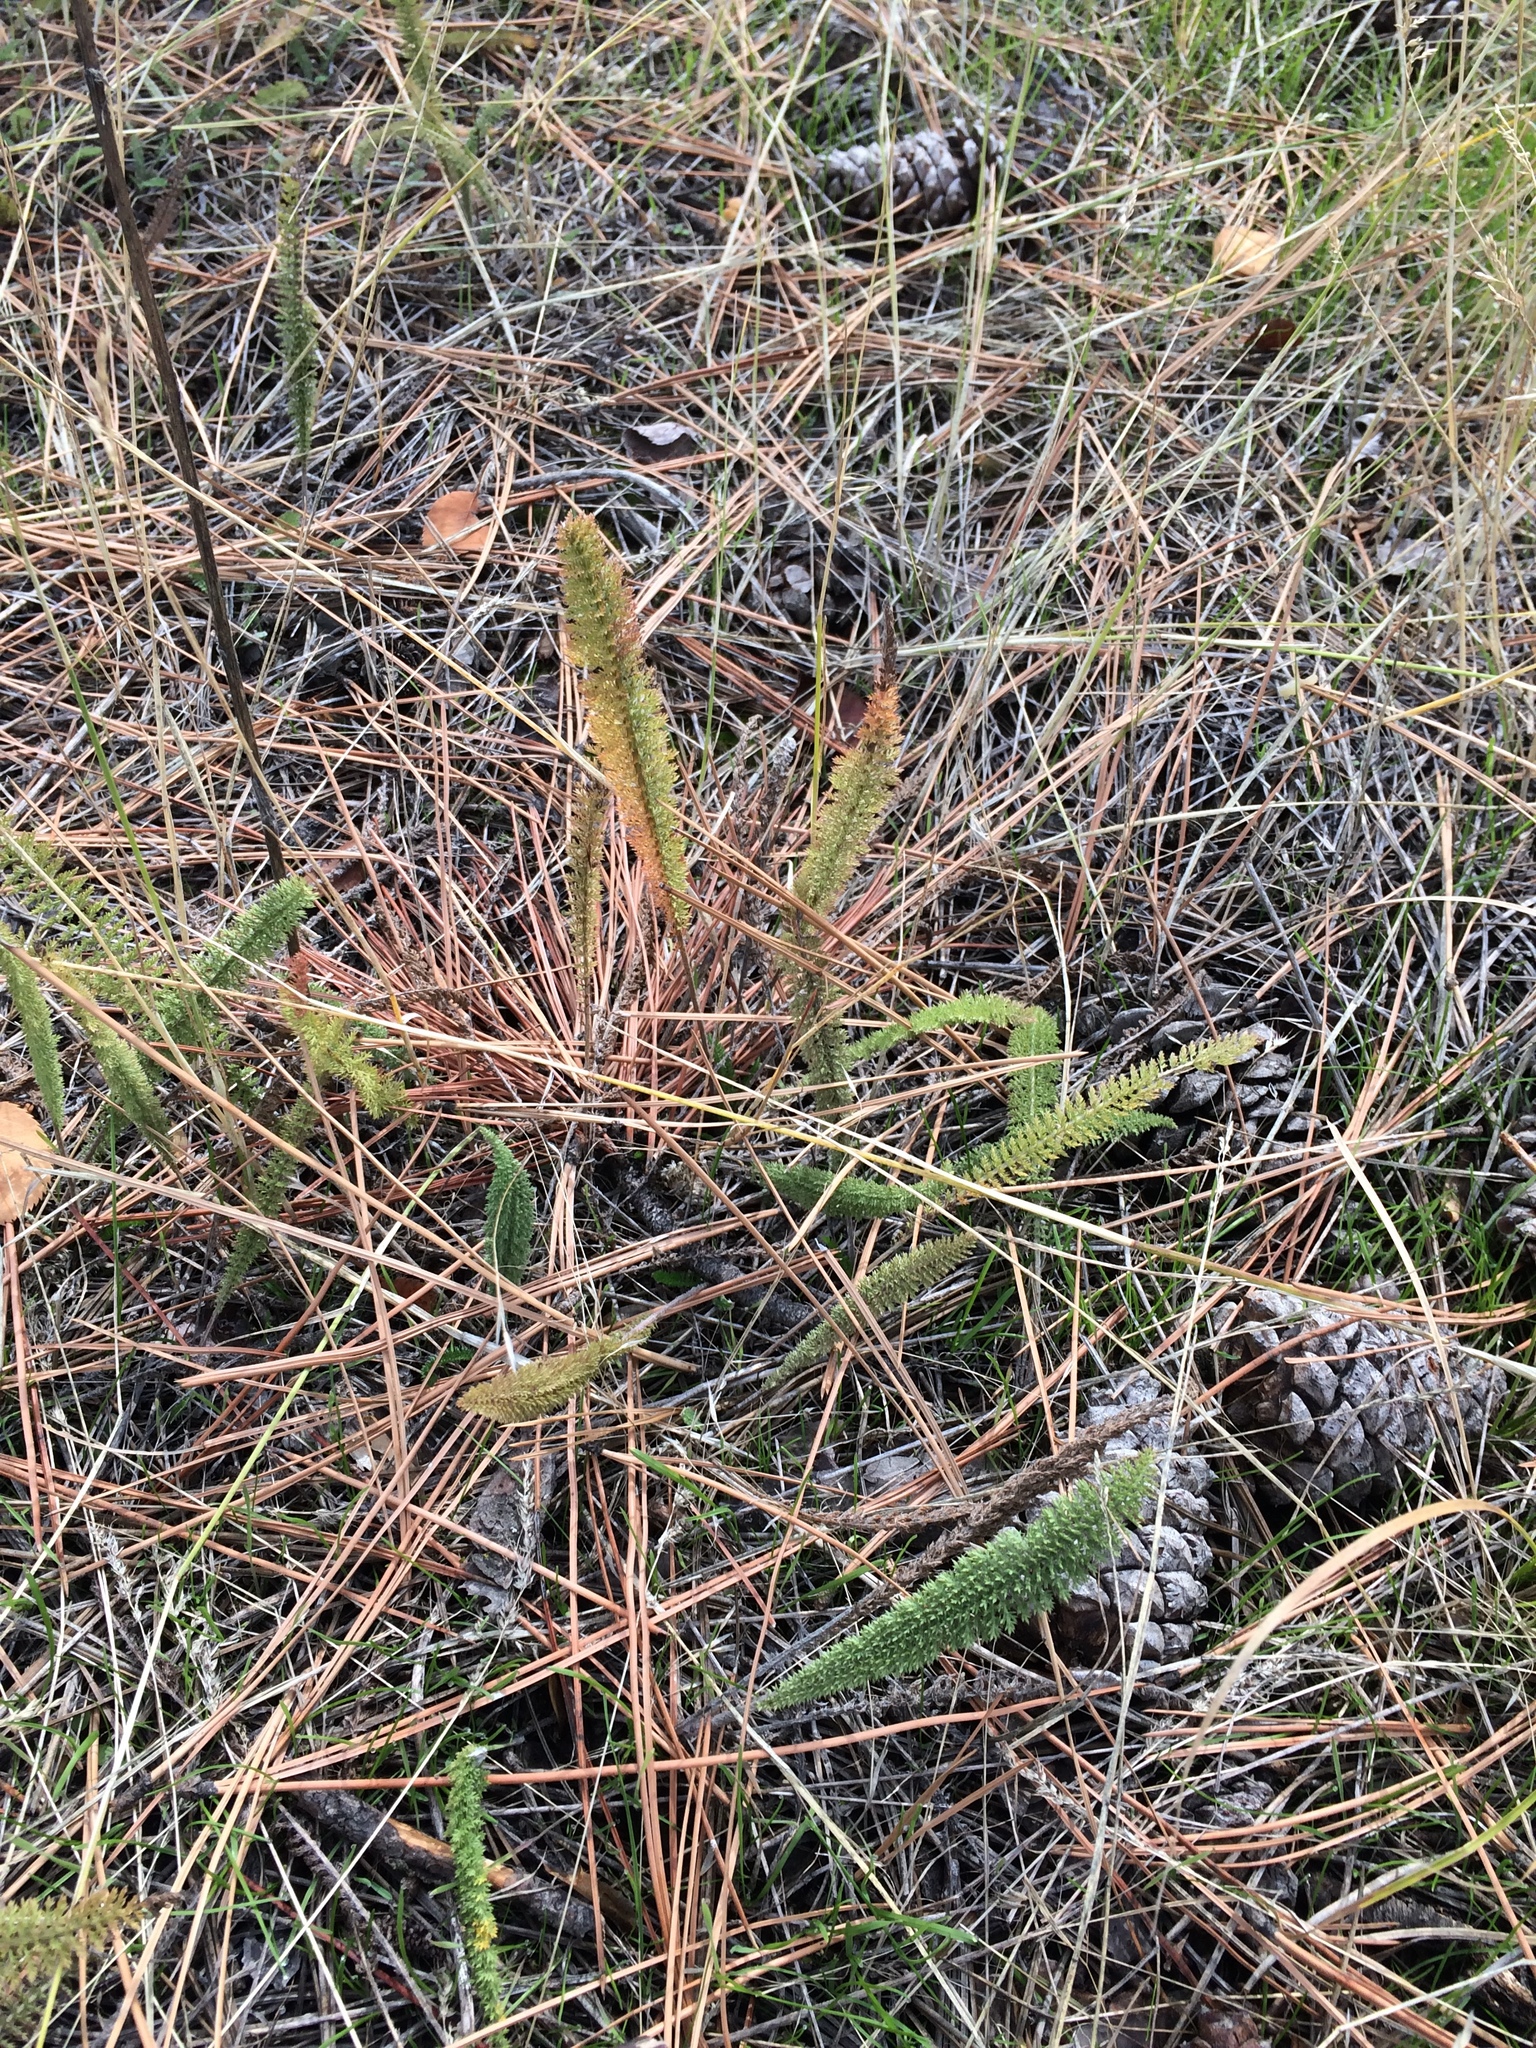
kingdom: Plantae
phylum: Tracheophyta
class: Magnoliopsida
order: Asterales
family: Asteraceae
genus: Achillea
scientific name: Achillea millefolium
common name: Yarrow
